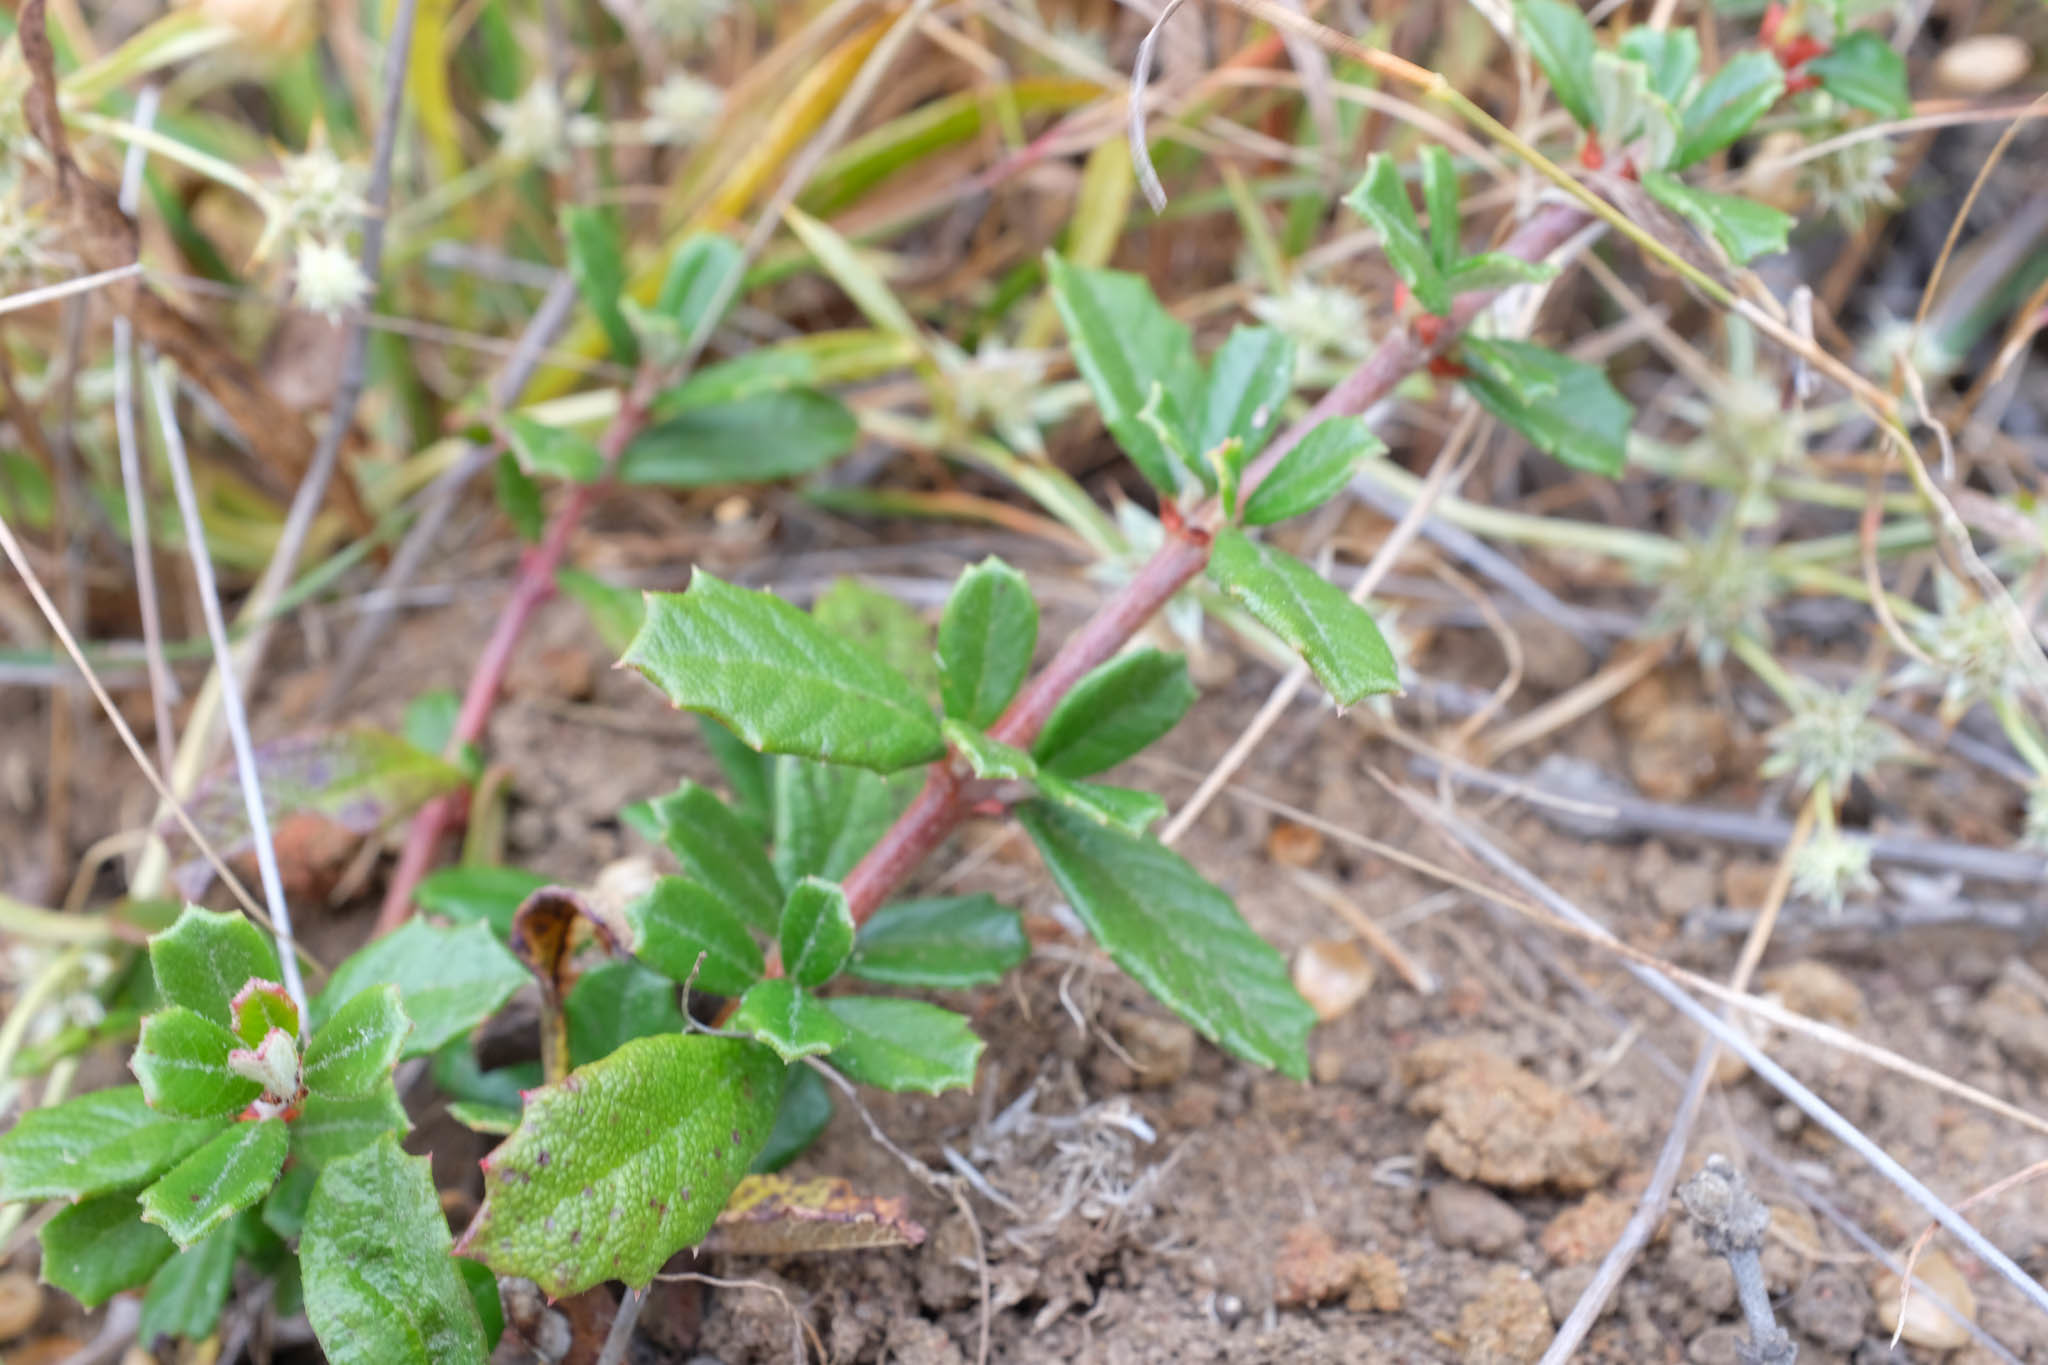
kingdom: Plantae
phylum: Tracheophyta
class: Magnoliopsida
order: Rosales
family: Rhamnaceae
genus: Ceanothus
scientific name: Ceanothus maritimus
